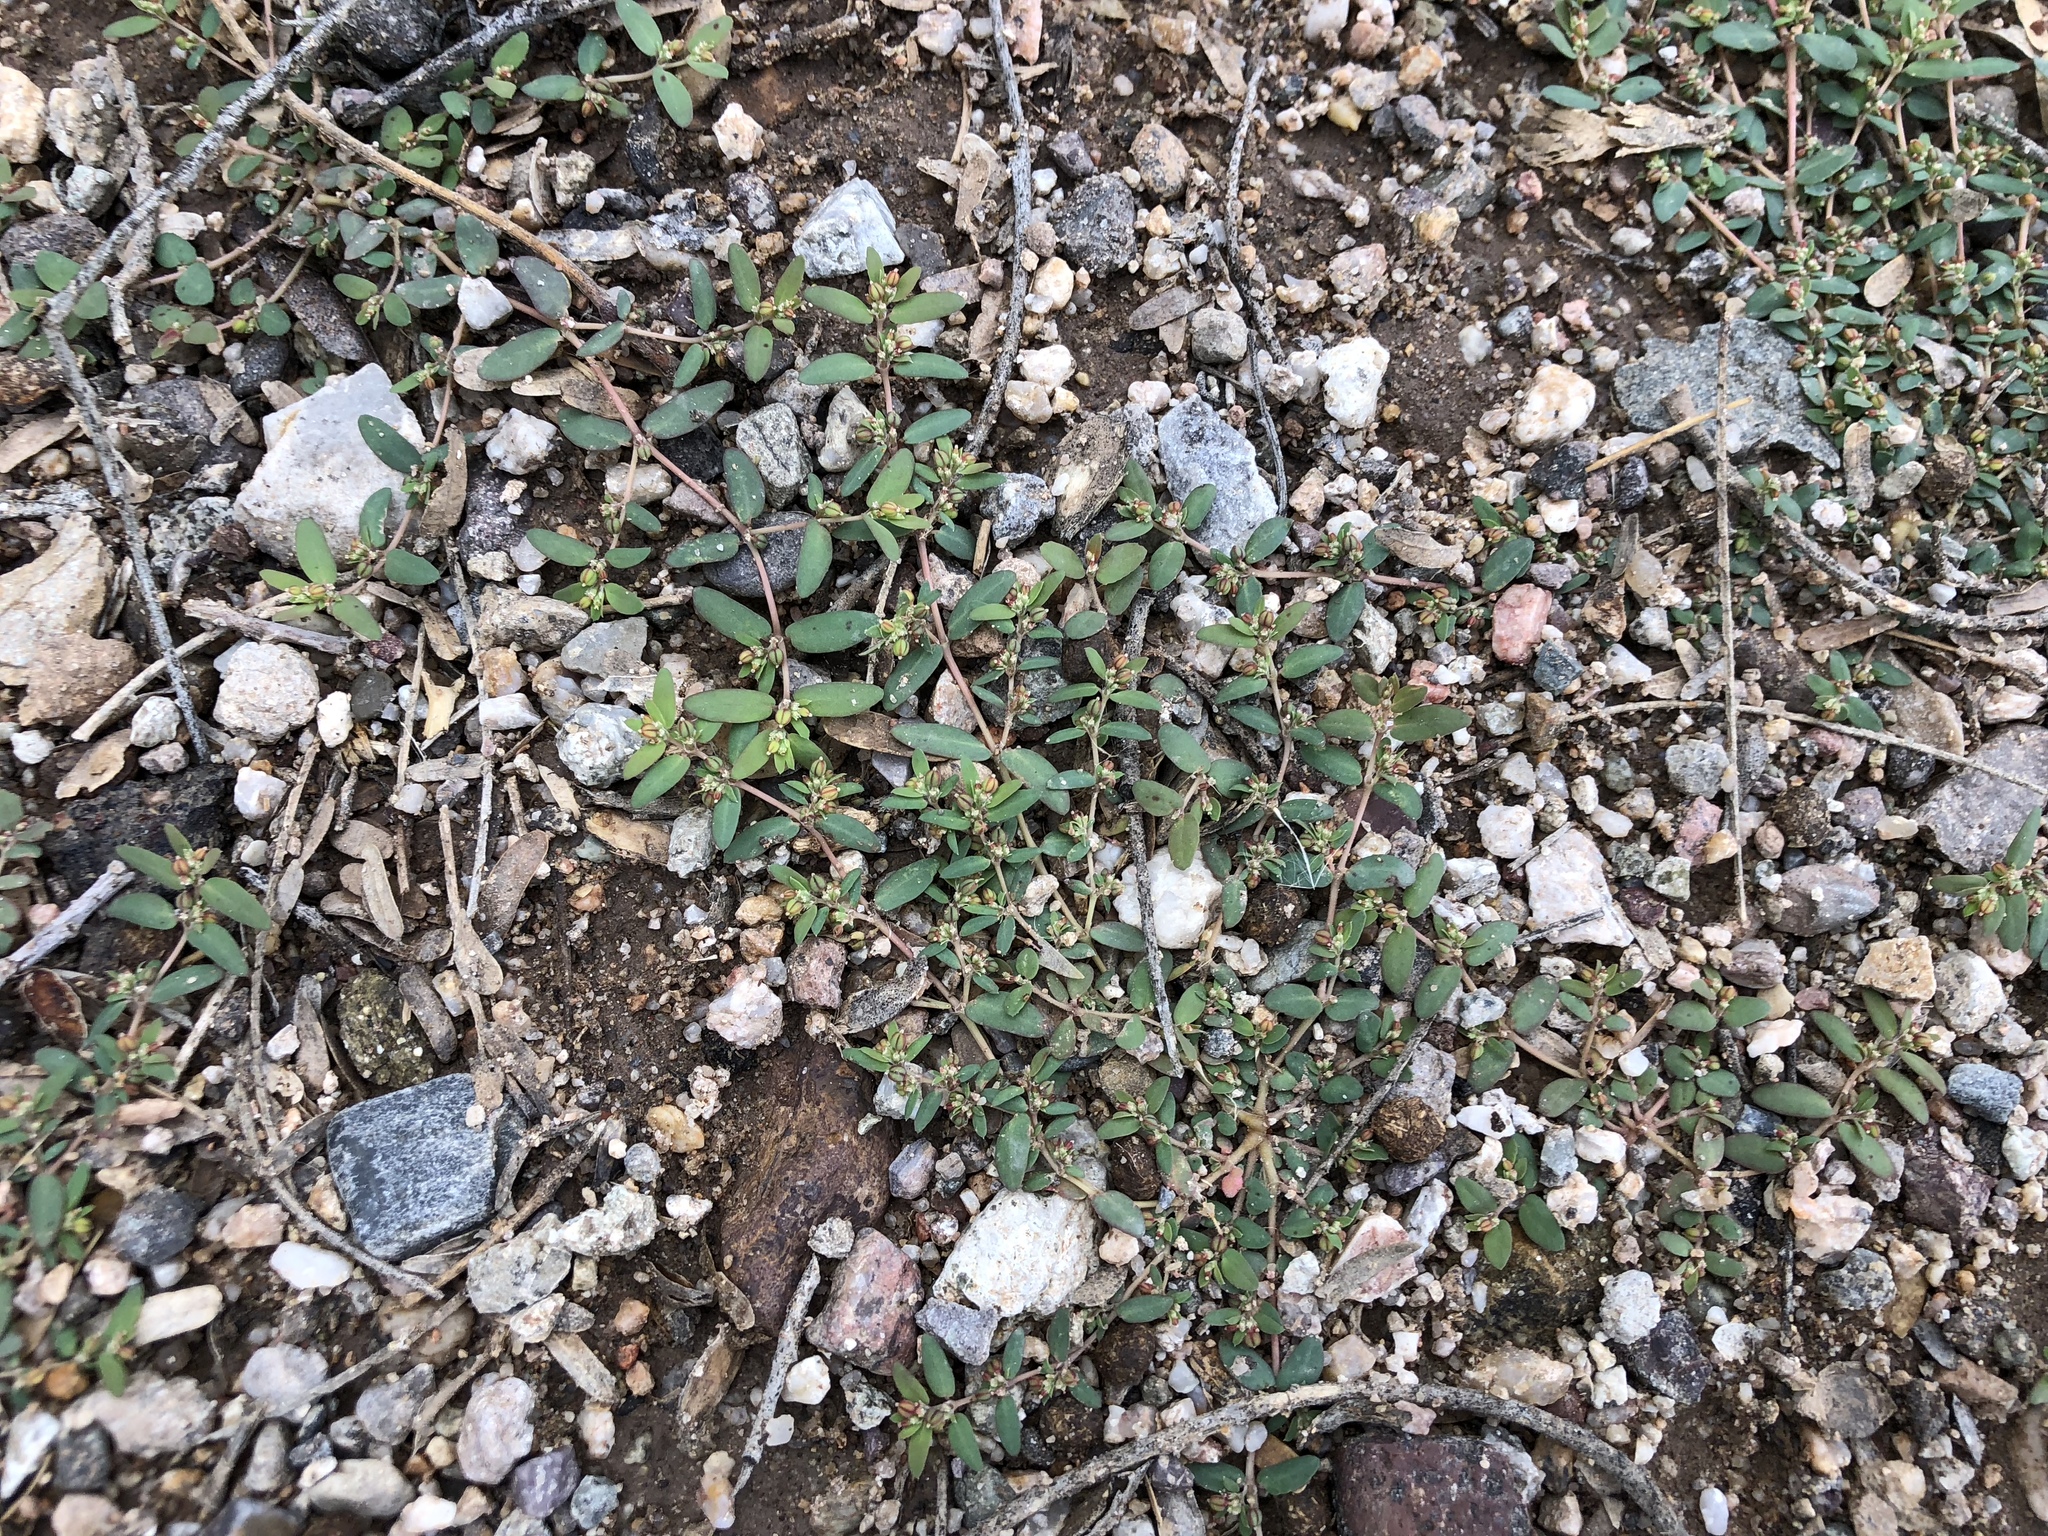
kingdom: Plantae
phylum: Tracheophyta
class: Magnoliopsida
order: Malpighiales
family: Euphorbiaceae
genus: Euphorbia
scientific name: Euphorbia abramsiana
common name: Abram's spurge
